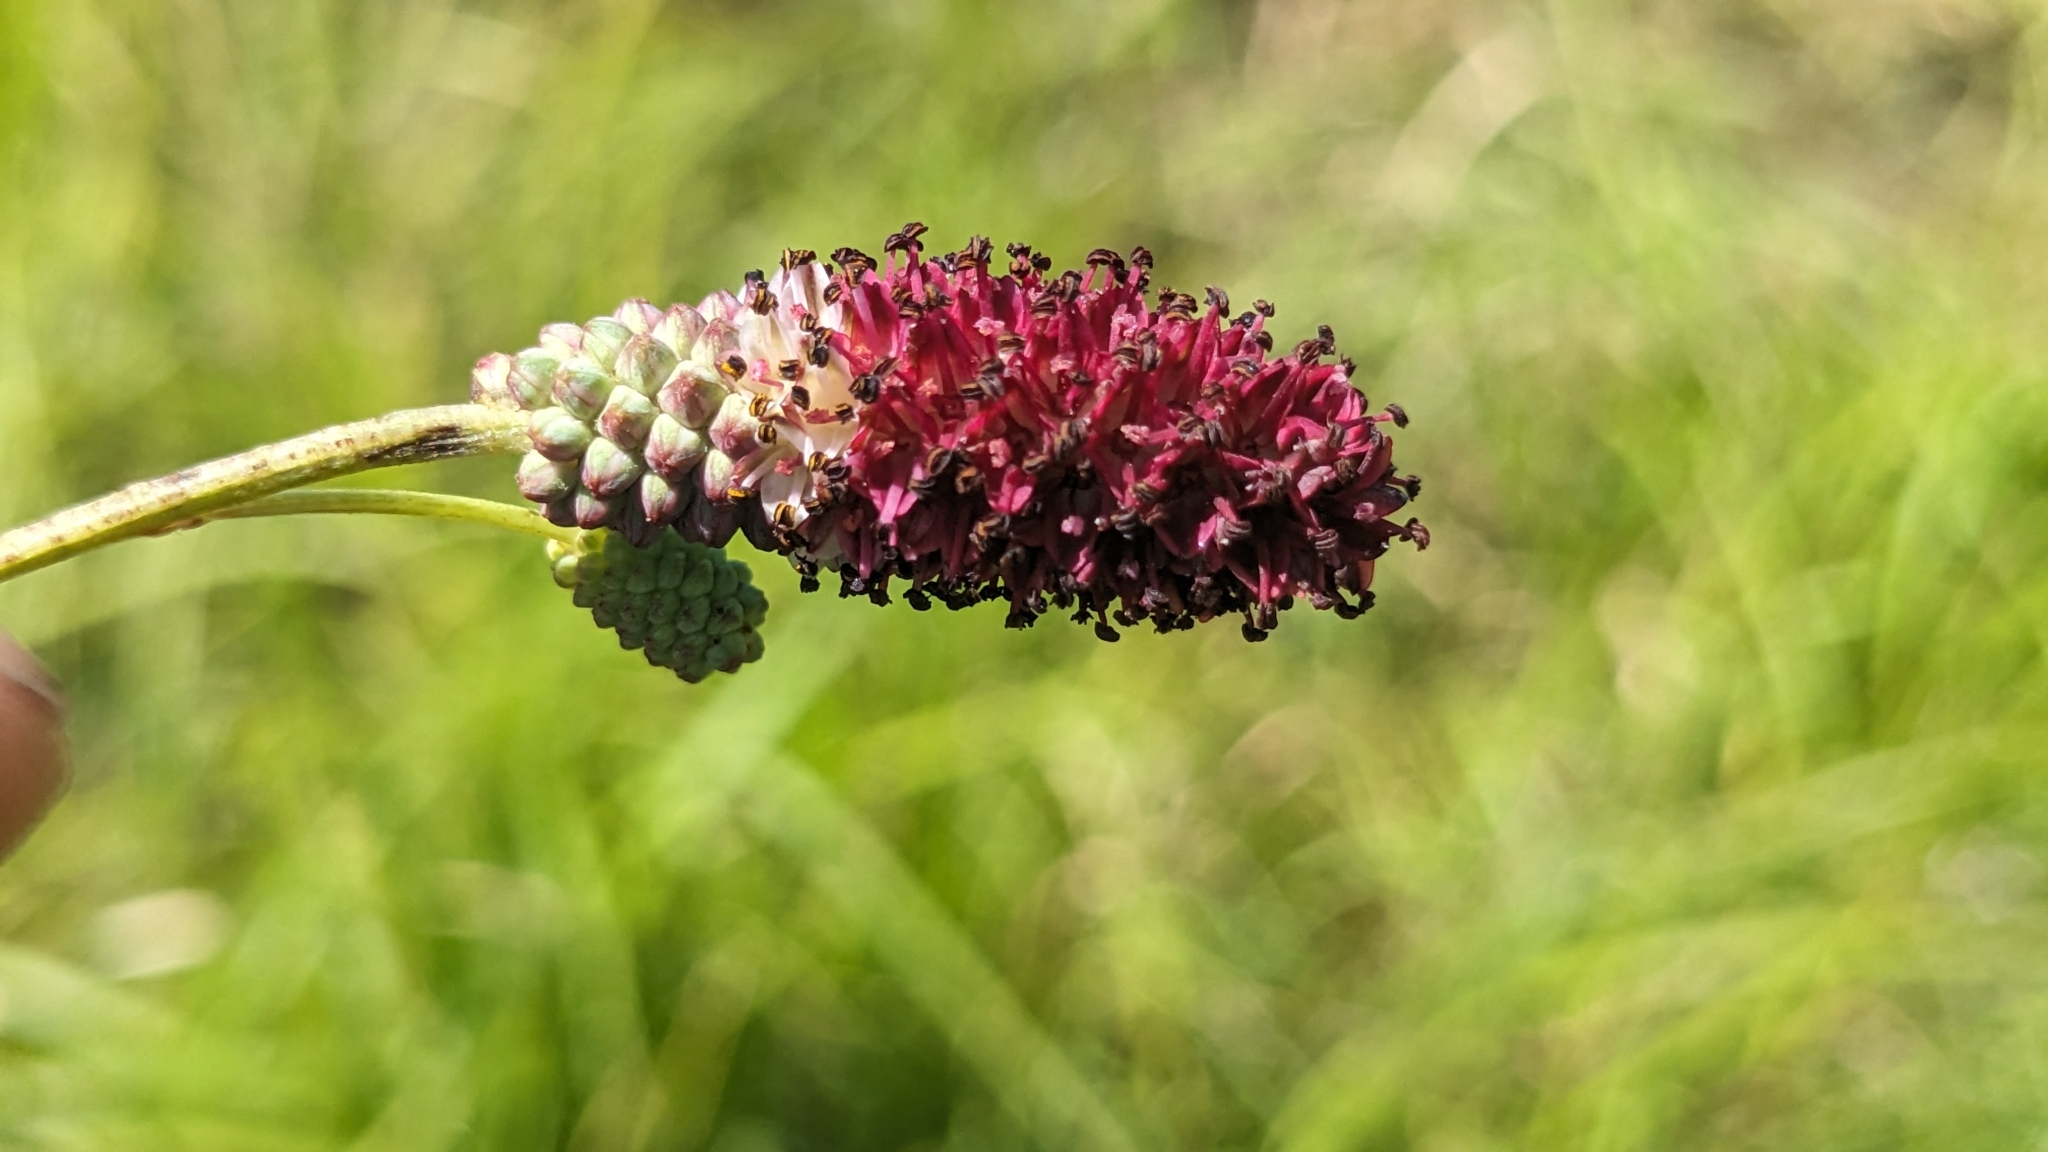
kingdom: Plantae
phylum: Tracheophyta
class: Magnoliopsida
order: Rosales
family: Rosaceae
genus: Poterium
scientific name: Poterium longifolium
